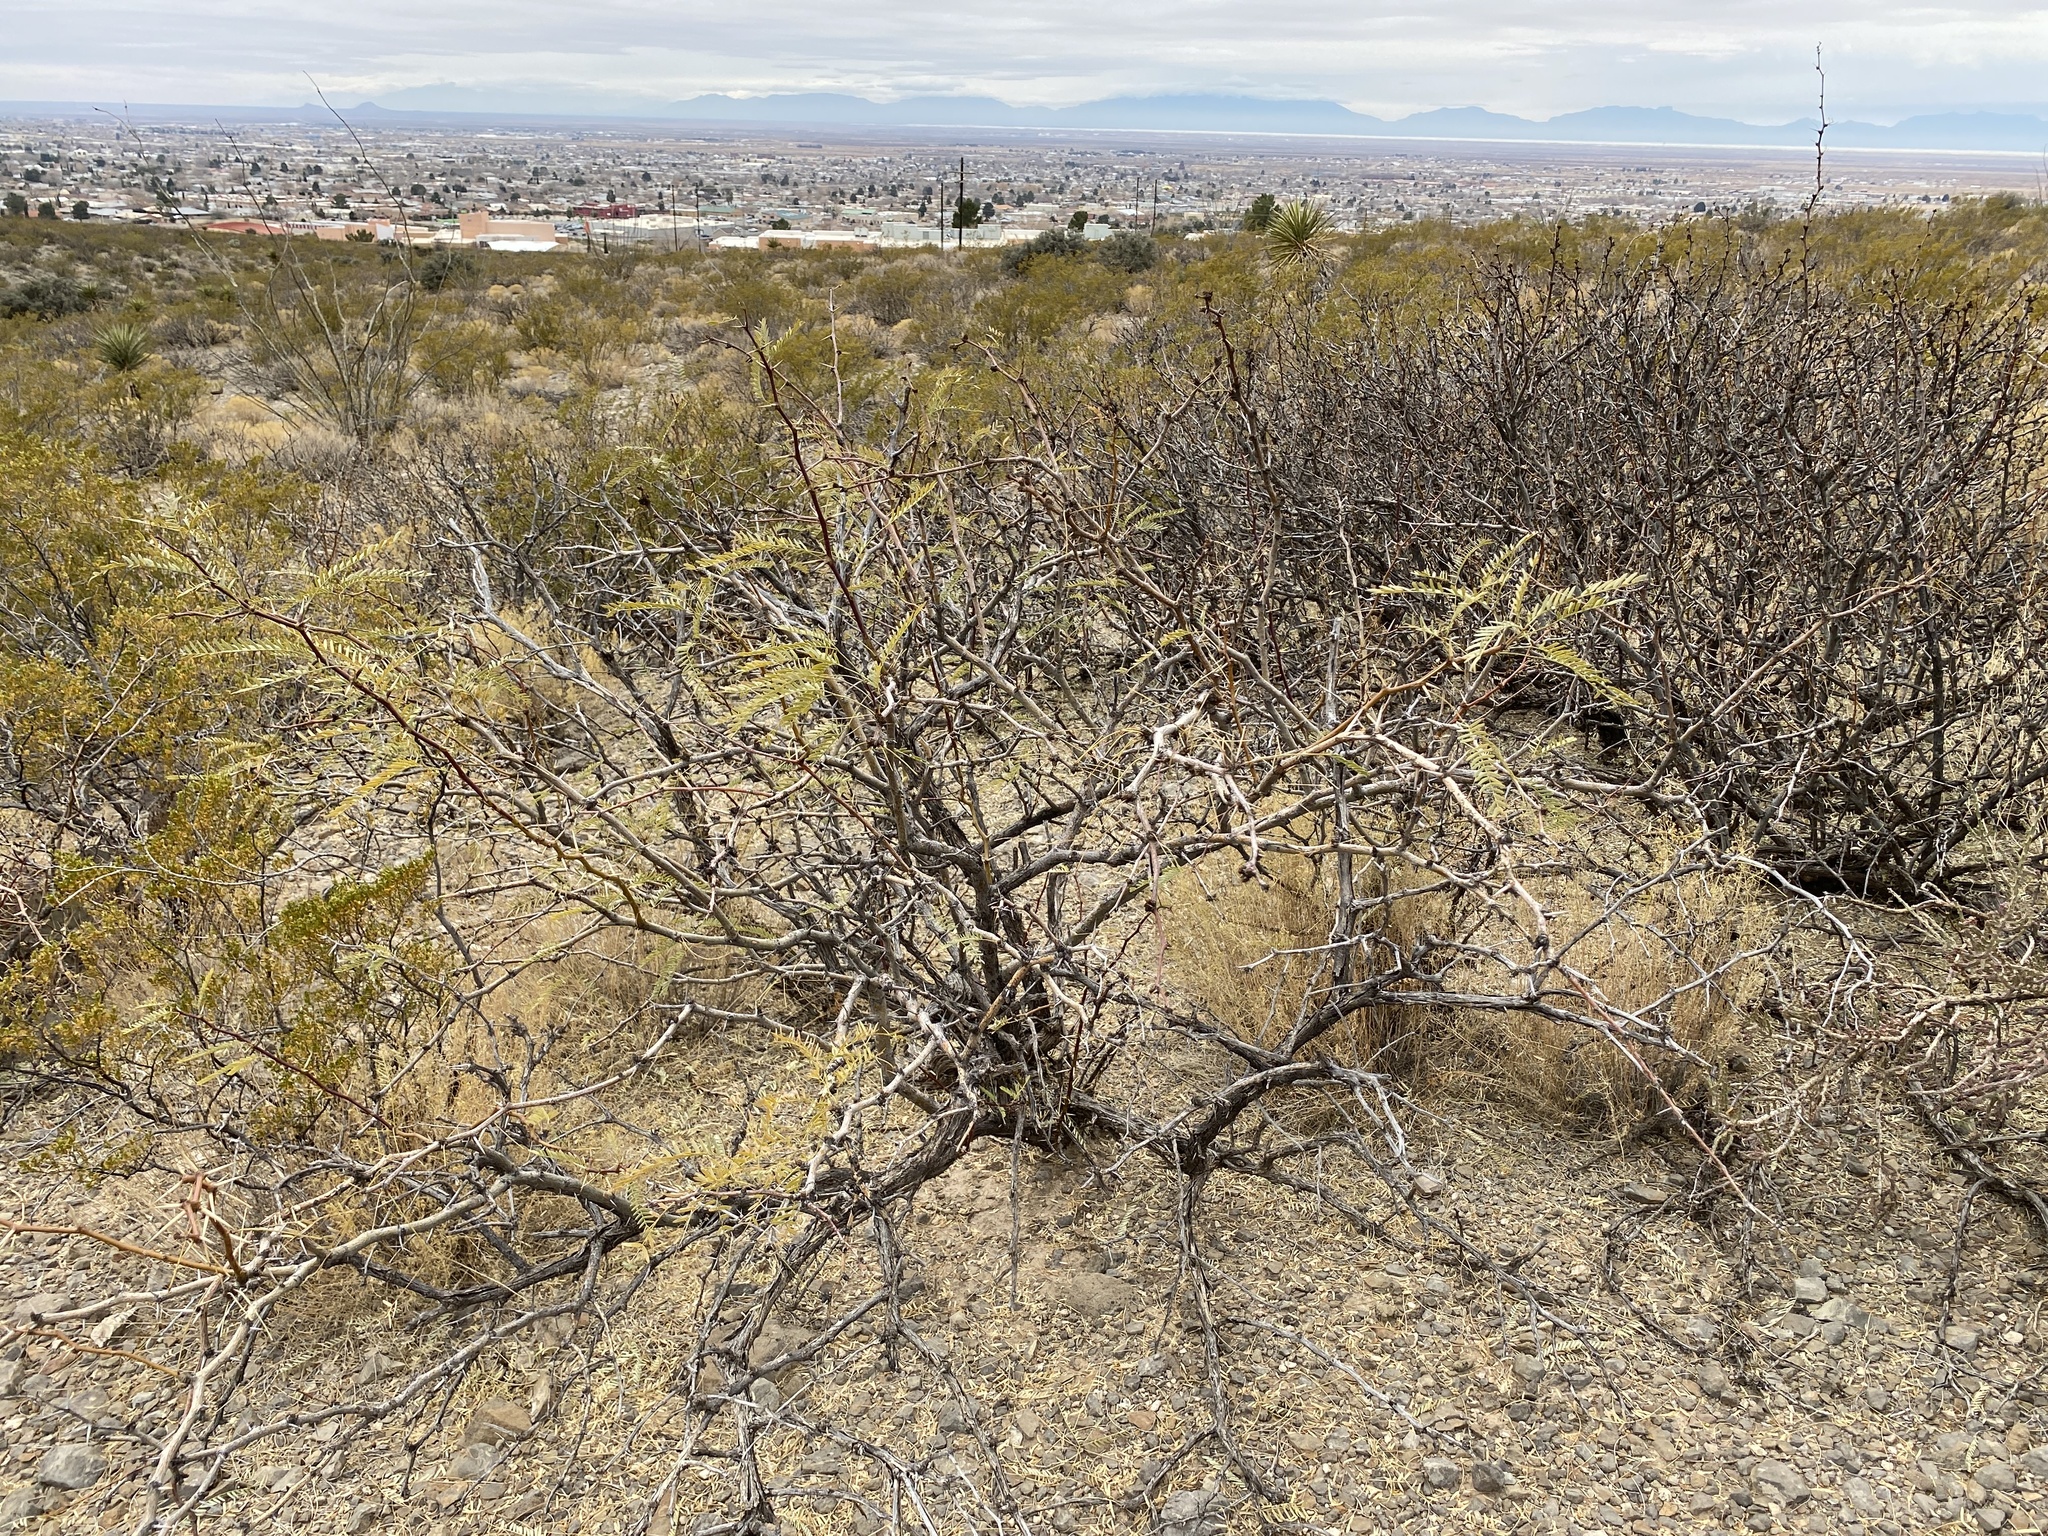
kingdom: Plantae
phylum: Tracheophyta
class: Magnoliopsida
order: Fabales
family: Fabaceae
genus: Prosopis
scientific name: Prosopis glandulosa
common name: Honey mesquite
